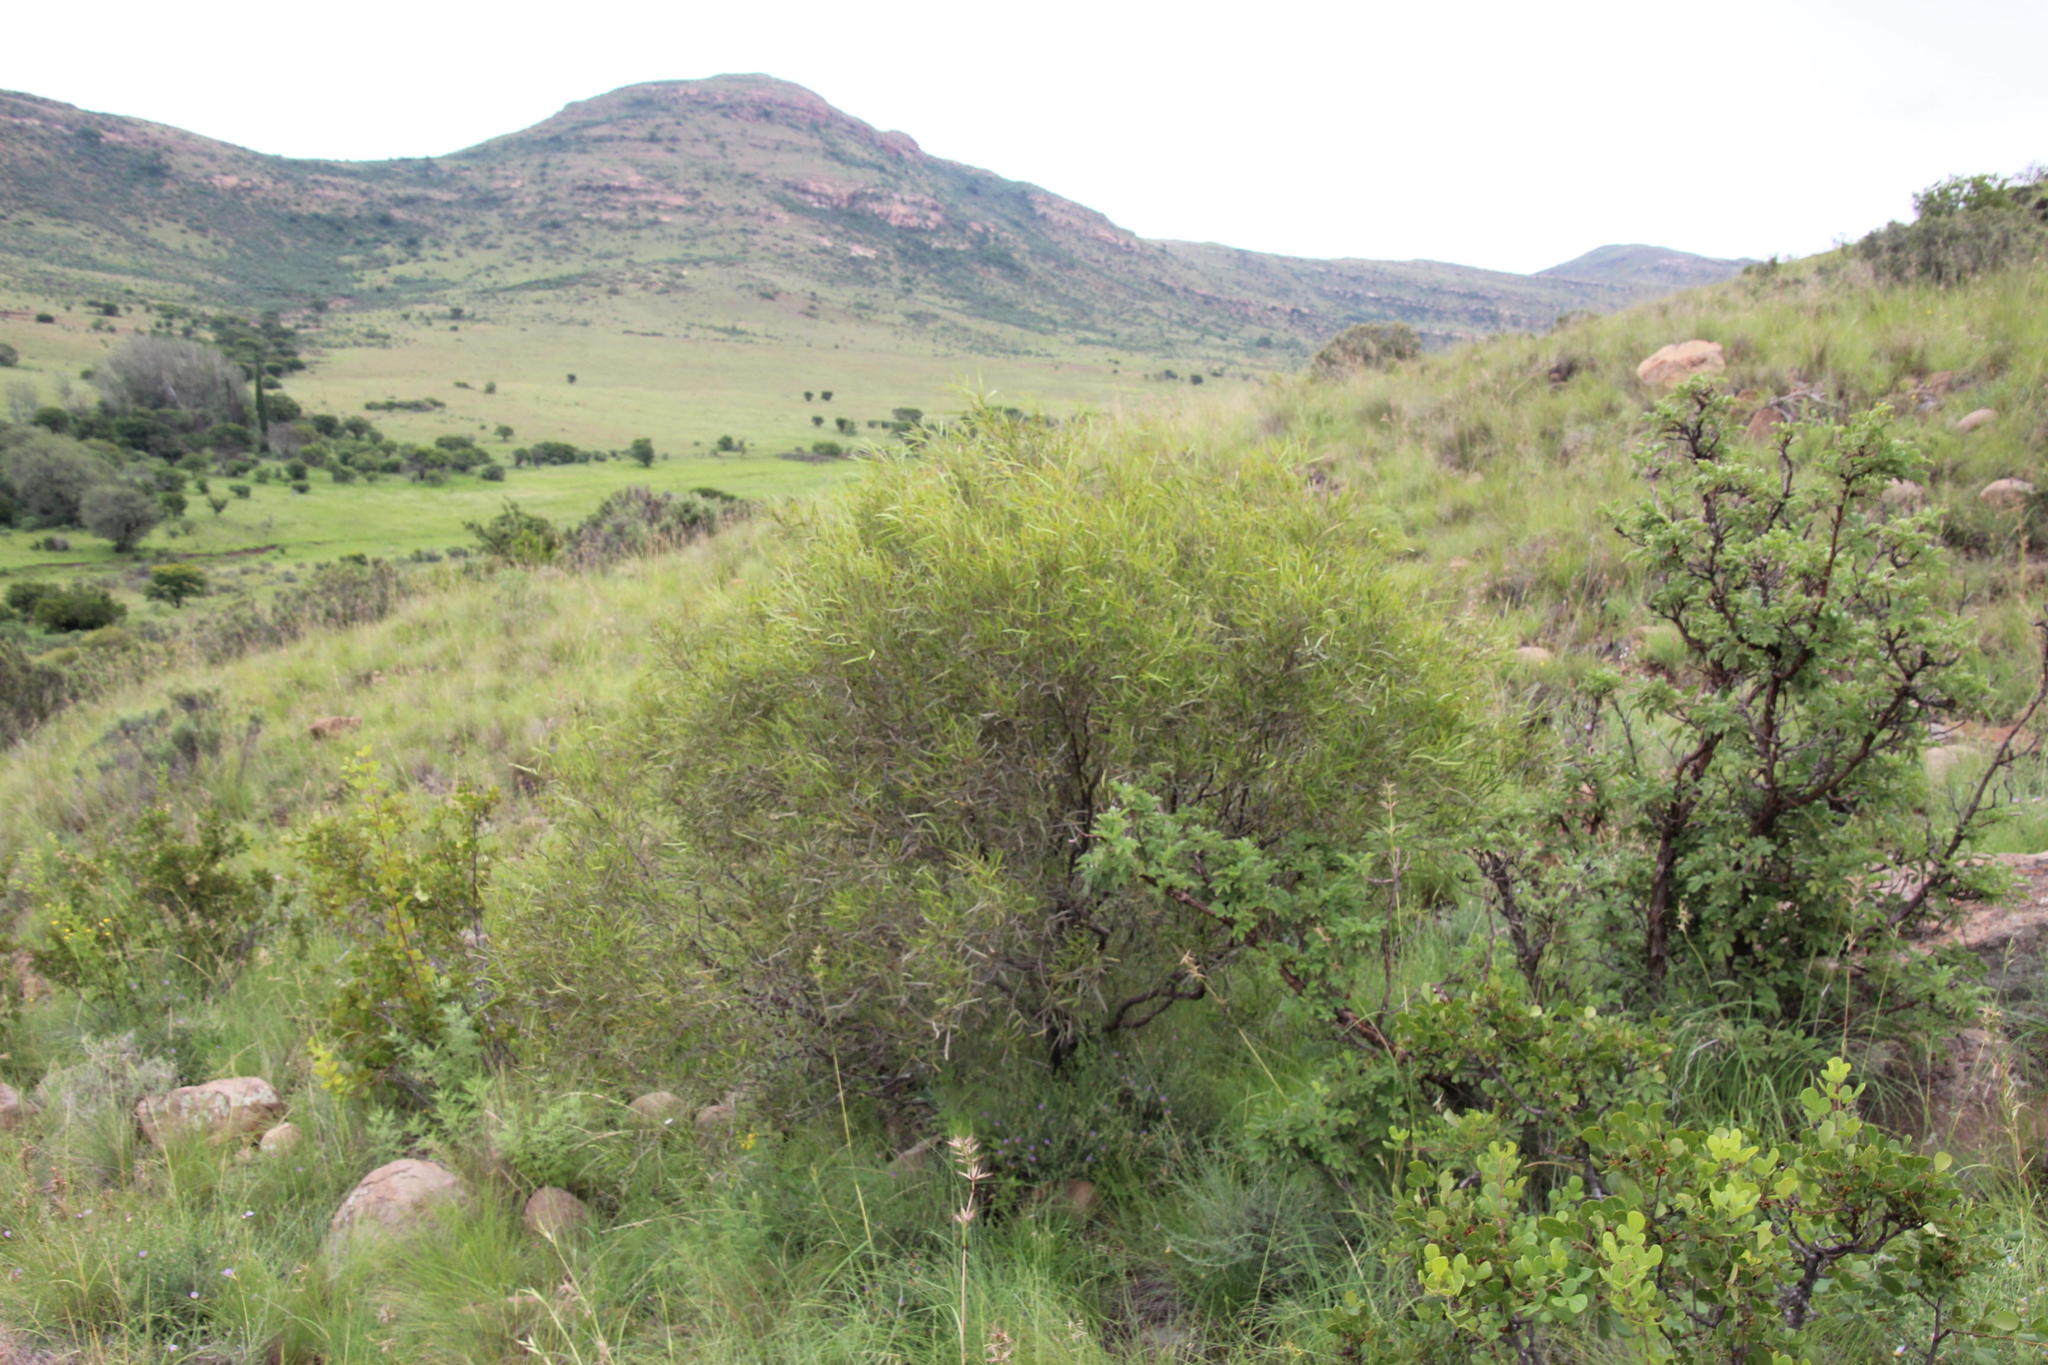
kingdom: Plantae
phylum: Tracheophyta
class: Magnoliopsida
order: Sapindales
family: Anacardiaceae
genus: Searsia
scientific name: Searsia erosa
